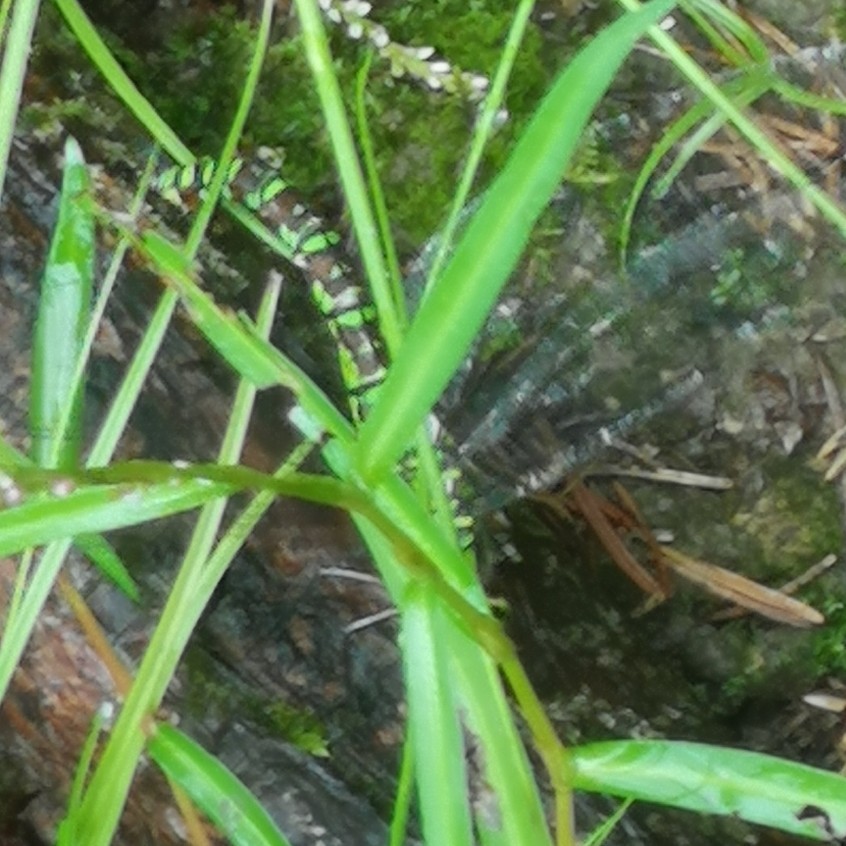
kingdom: Animalia
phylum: Arthropoda
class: Insecta
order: Odonata
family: Aeshnidae
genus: Aeshna
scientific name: Aeshna cyanea
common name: Southern hawker
